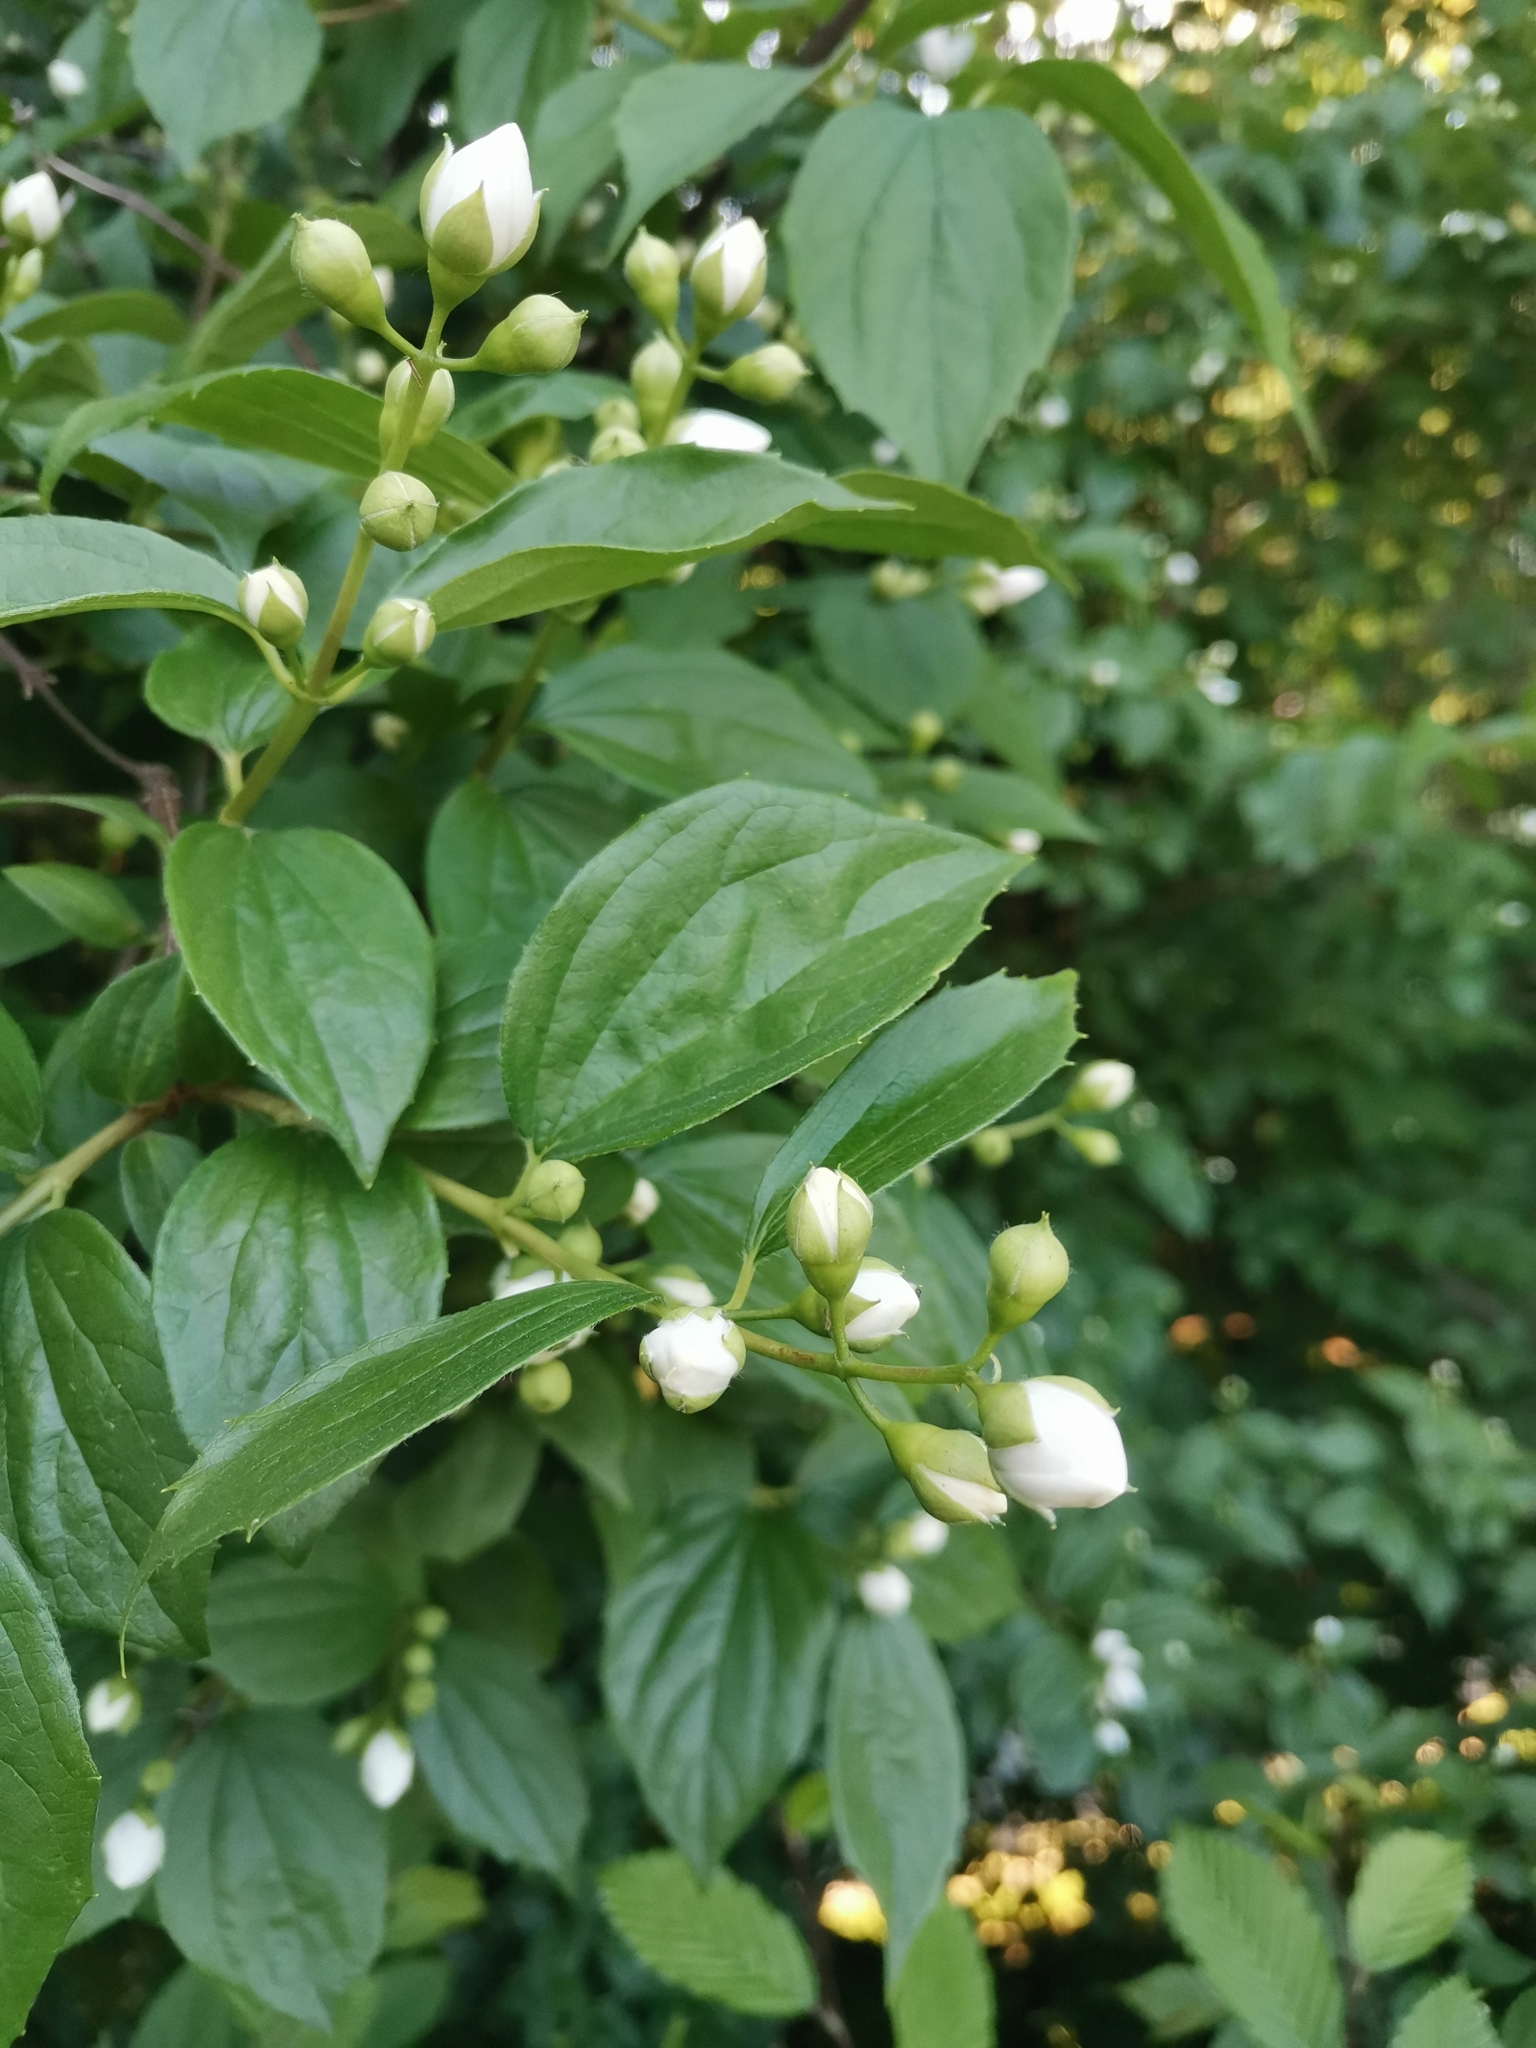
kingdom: Plantae
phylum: Tracheophyta
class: Magnoliopsida
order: Cornales
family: Hydrangeaceae
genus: Philadelphus
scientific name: Philadelphus coronarius
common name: Mock orange
